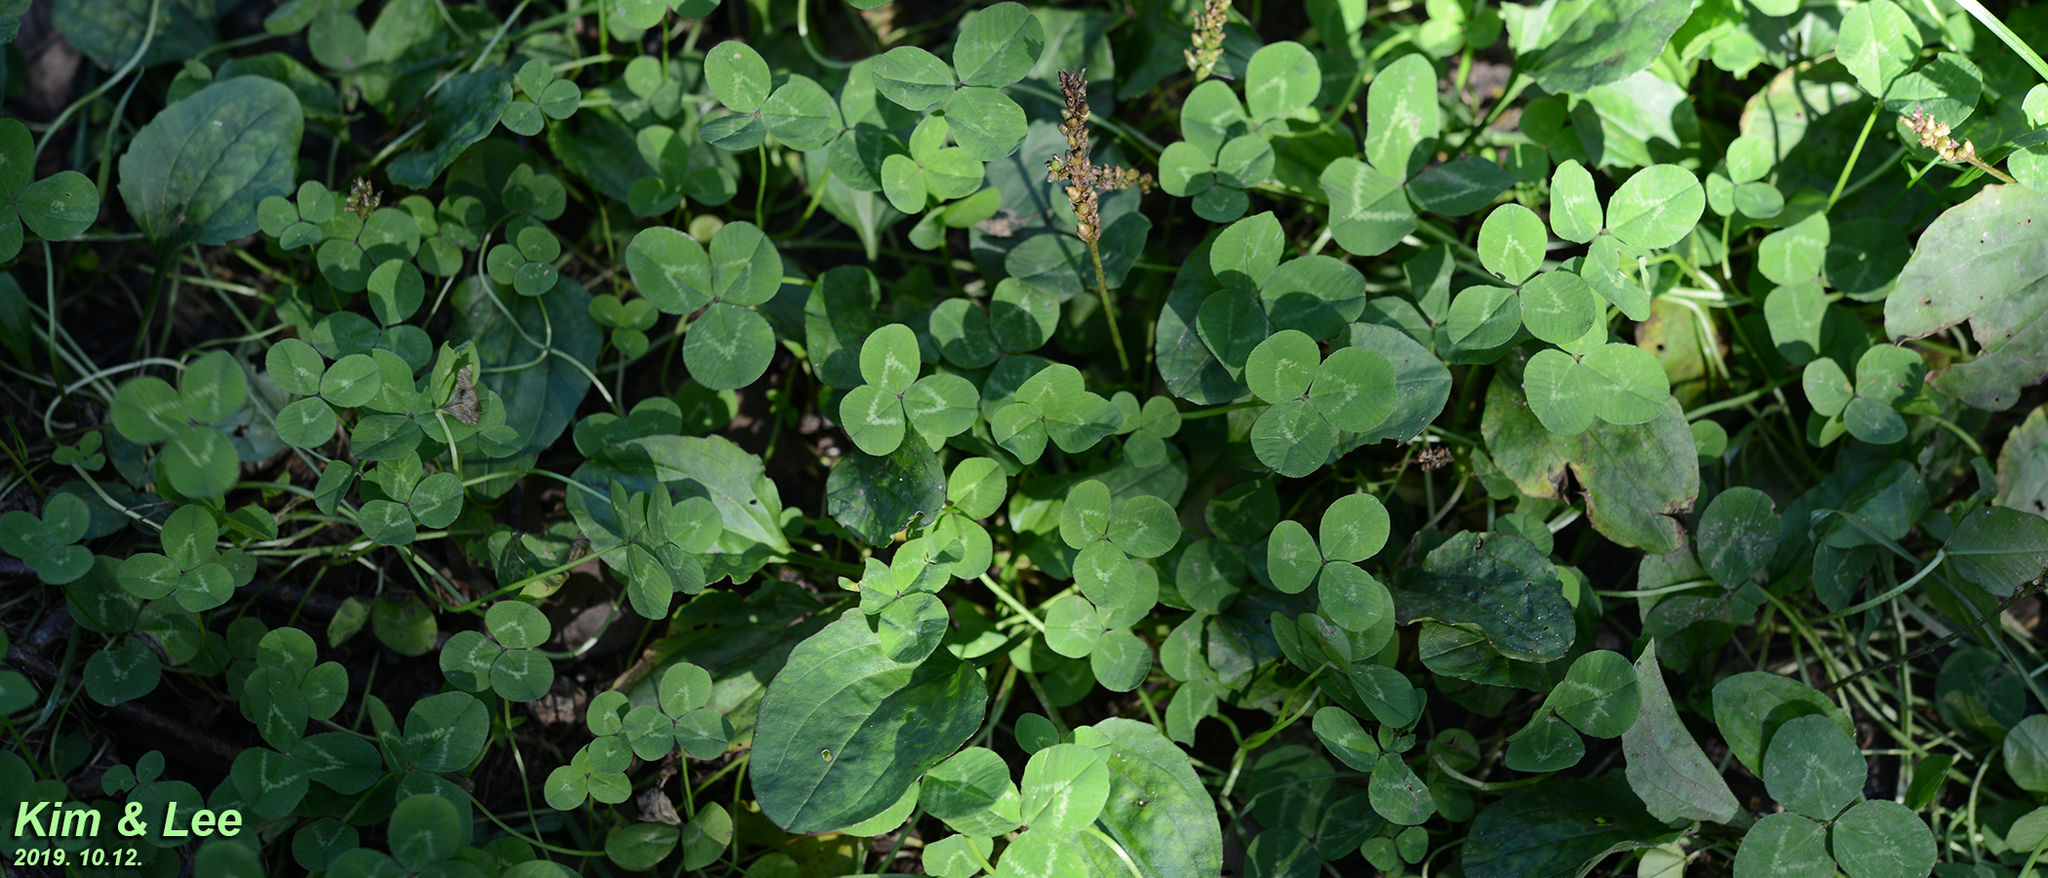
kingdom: Plantae
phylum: Tracheophyta
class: Magnoliopsida
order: Fabales
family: Fabaceae
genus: Trifolium
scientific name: Trifolium repens
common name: White clover
